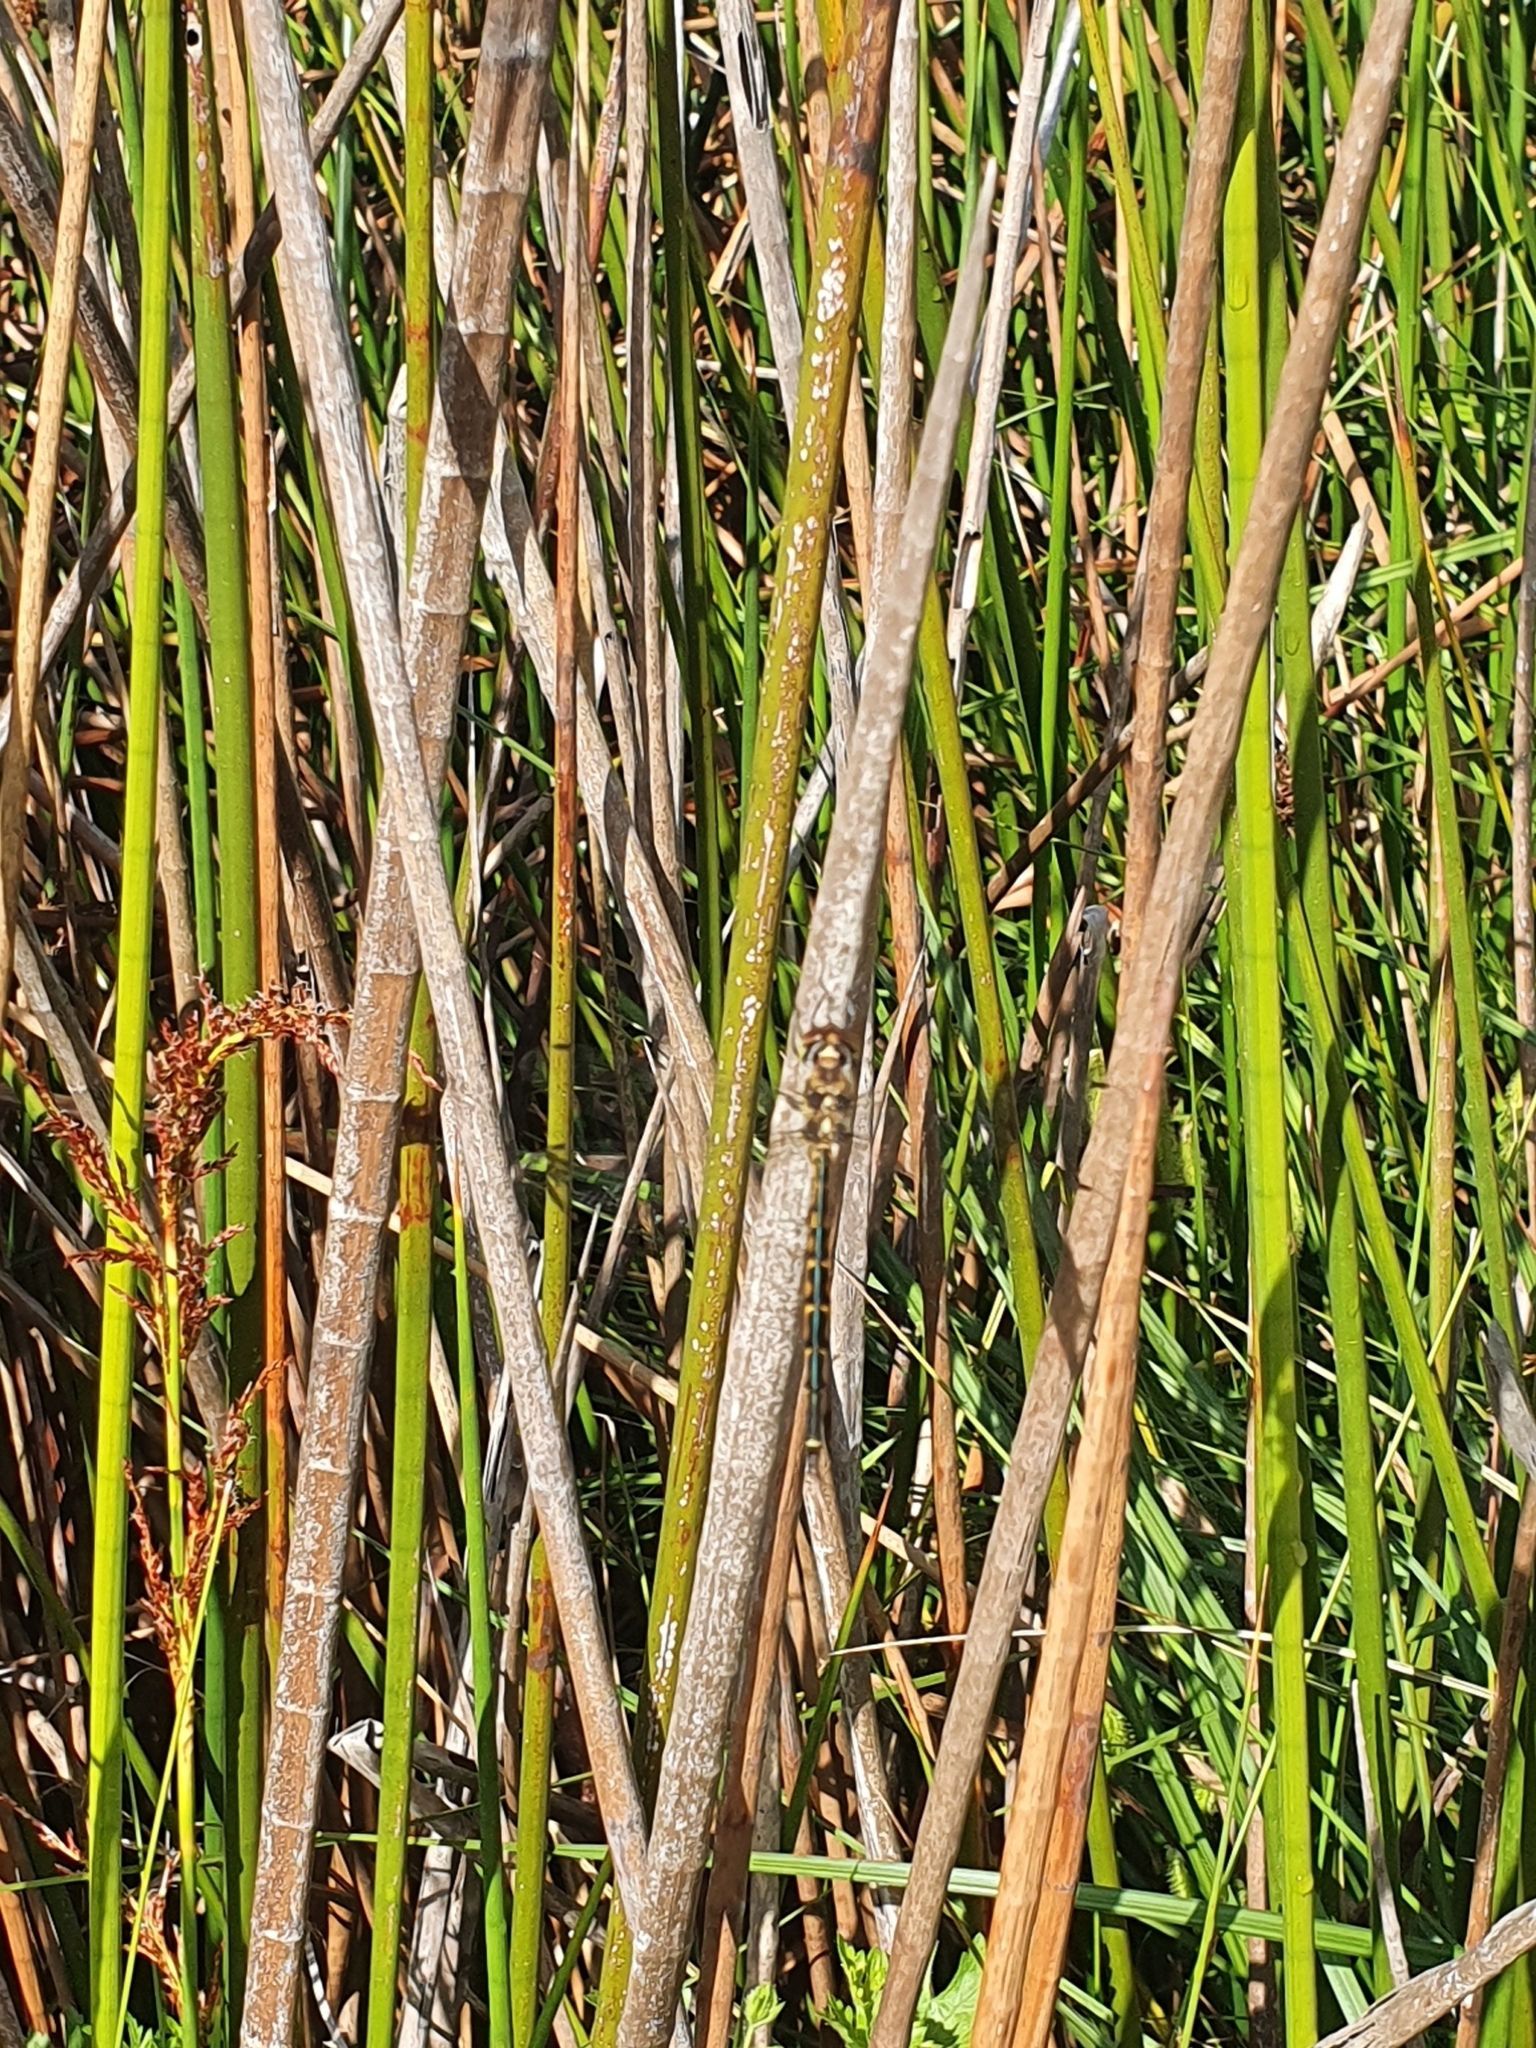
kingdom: Animalia
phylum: Arthropoda
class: Insecta
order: Odonata
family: Corduliidae
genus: Hemicordulia
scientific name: Hemicordulia australiae
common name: Sentry dragonfly
